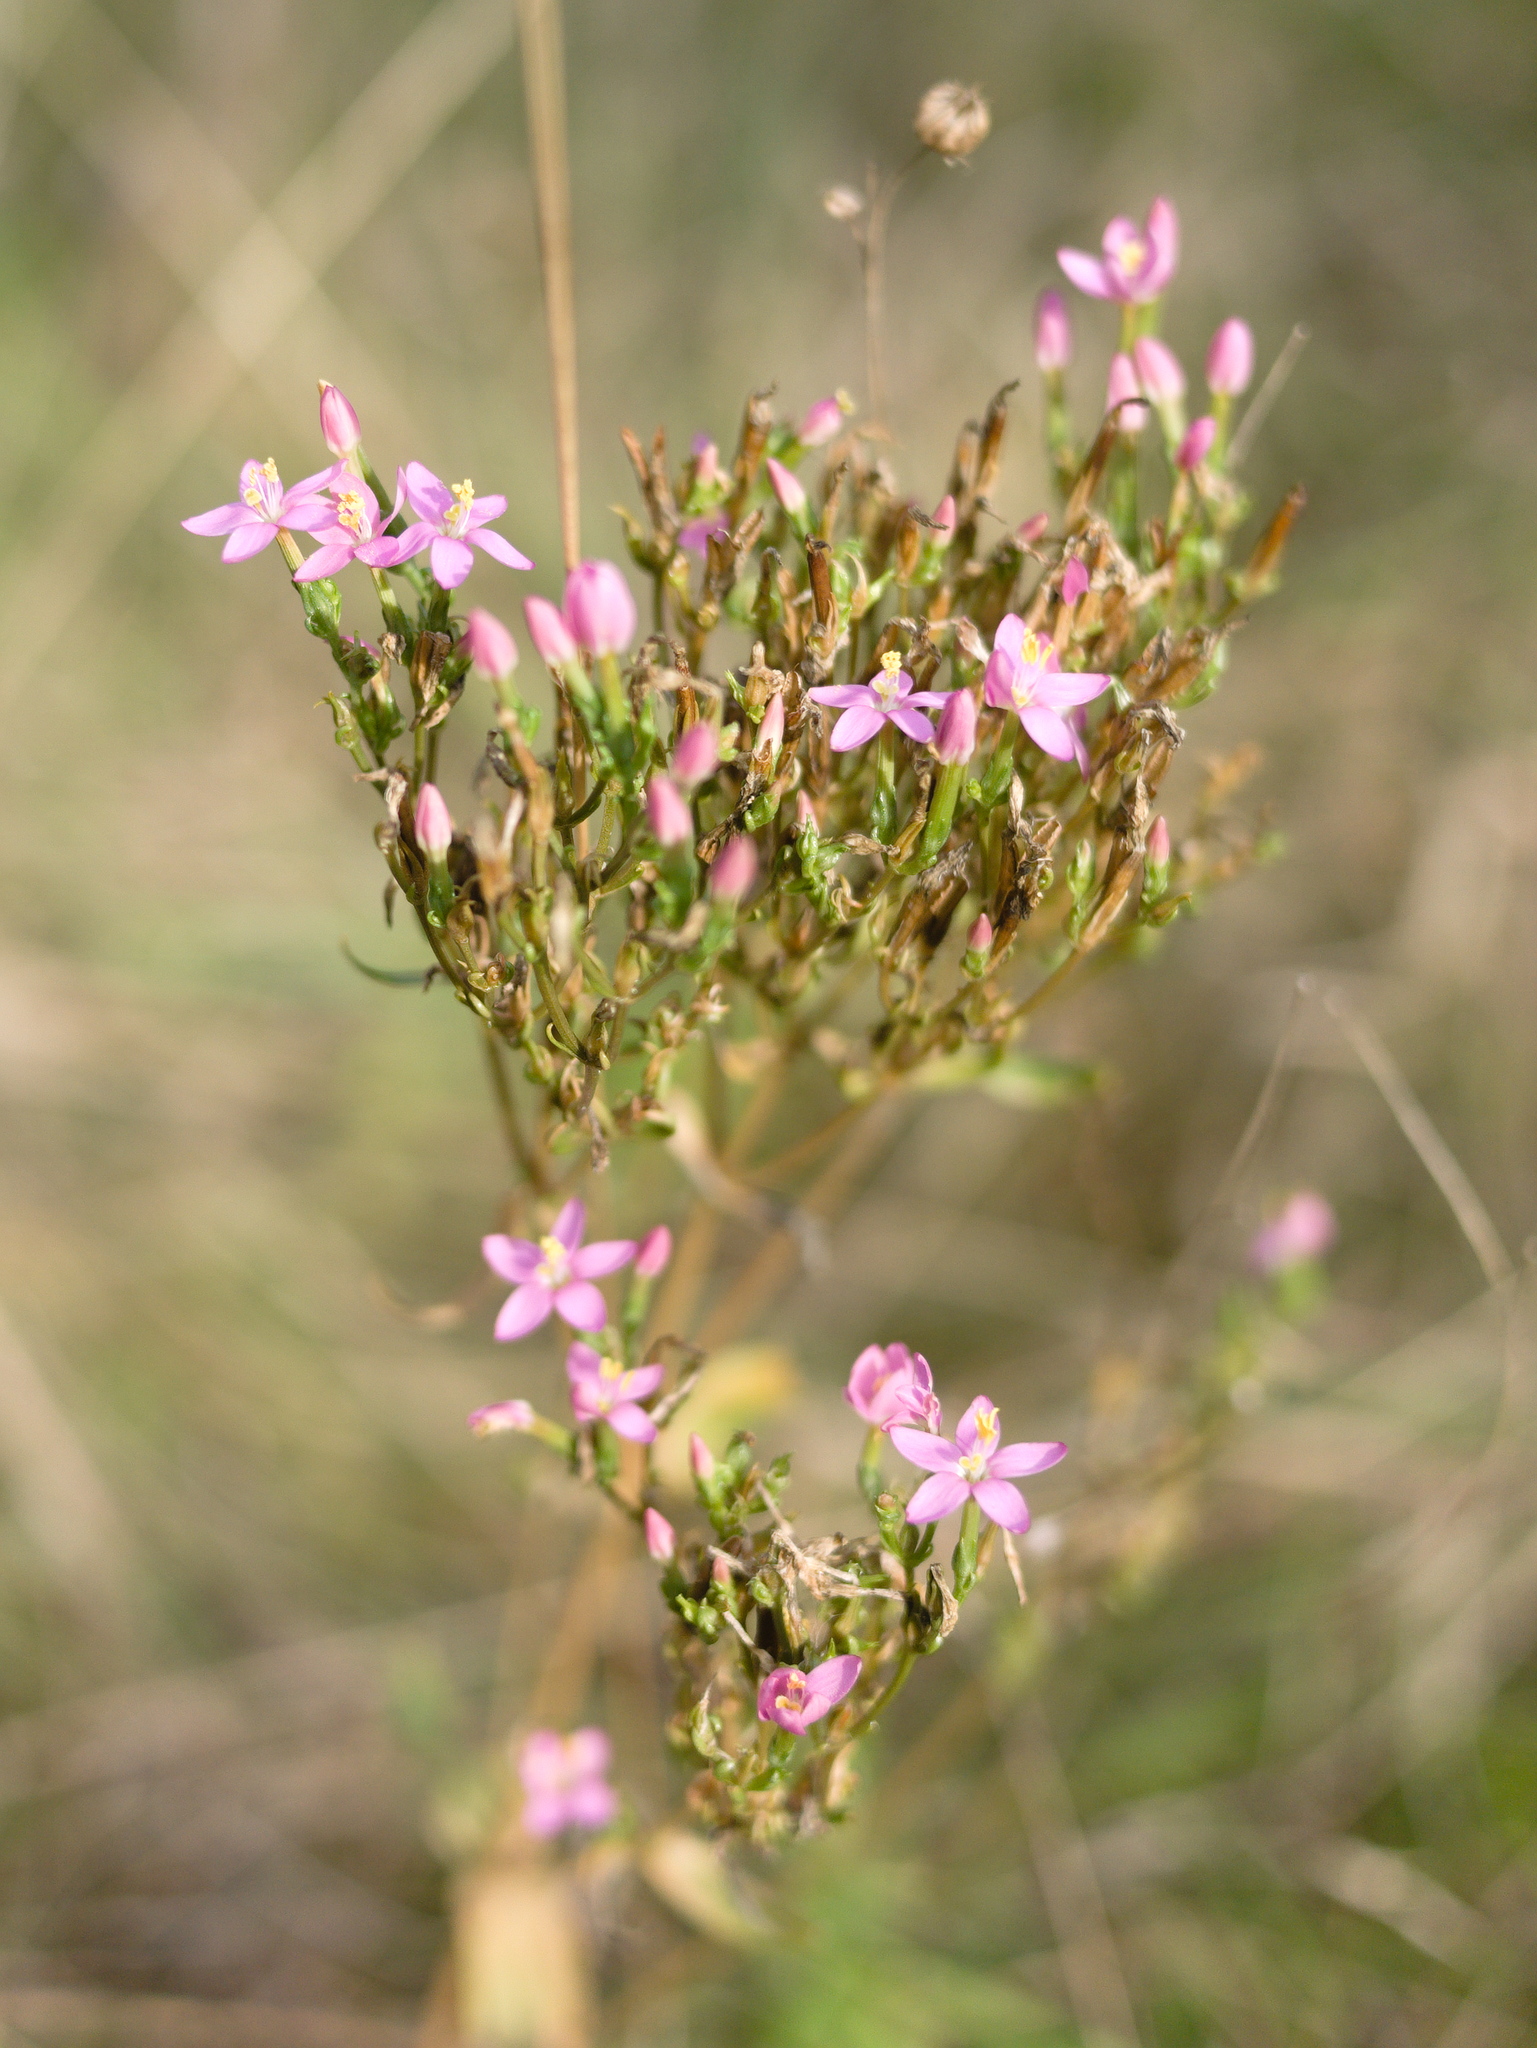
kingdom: Plantae
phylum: Tracheophyta
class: Magnoliopsida
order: Gentianales
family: Gentianaceae
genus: Centaurium
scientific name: Centaurium erythraea
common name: Common centaury
